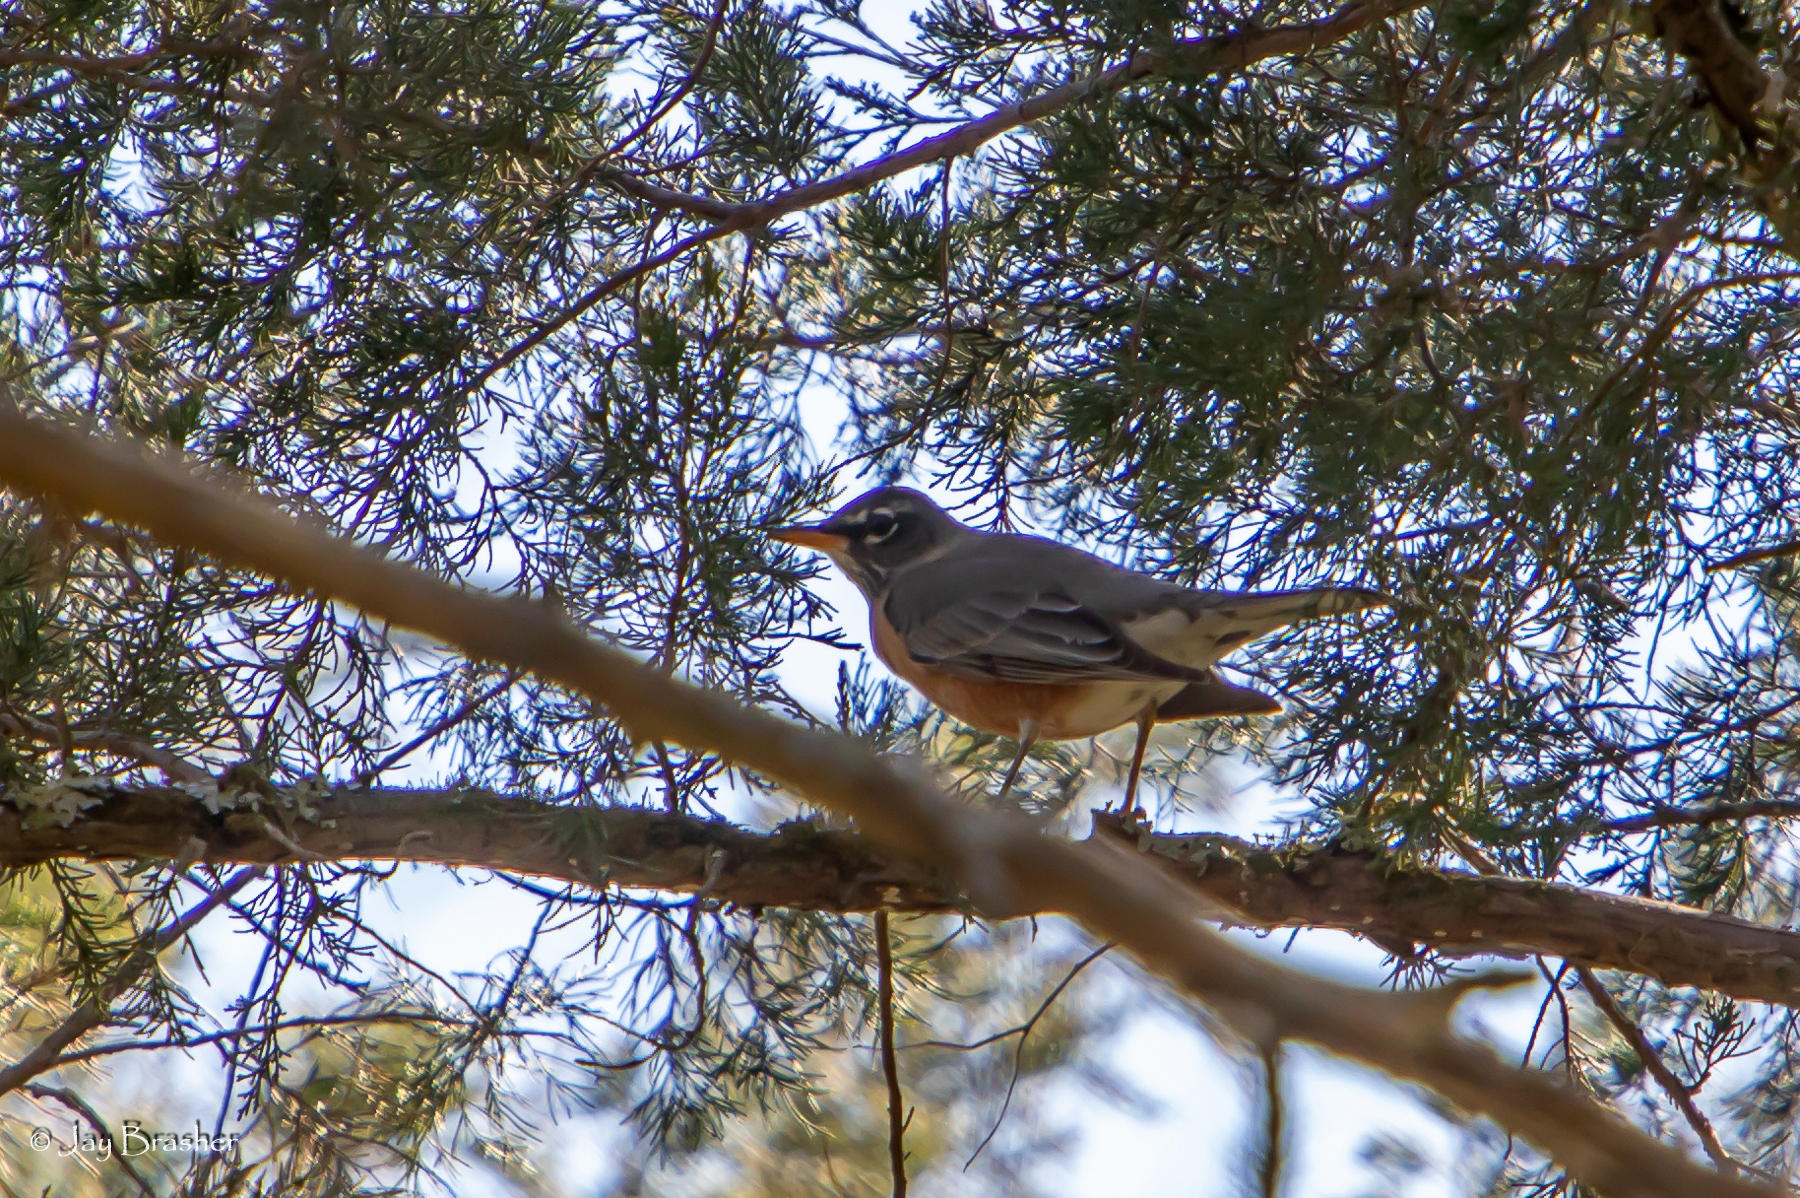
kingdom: Animalia
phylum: Chordata
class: Aves
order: Passeriformes
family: Turdidae
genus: Turdus
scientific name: Turdus migratorius
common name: American robin
